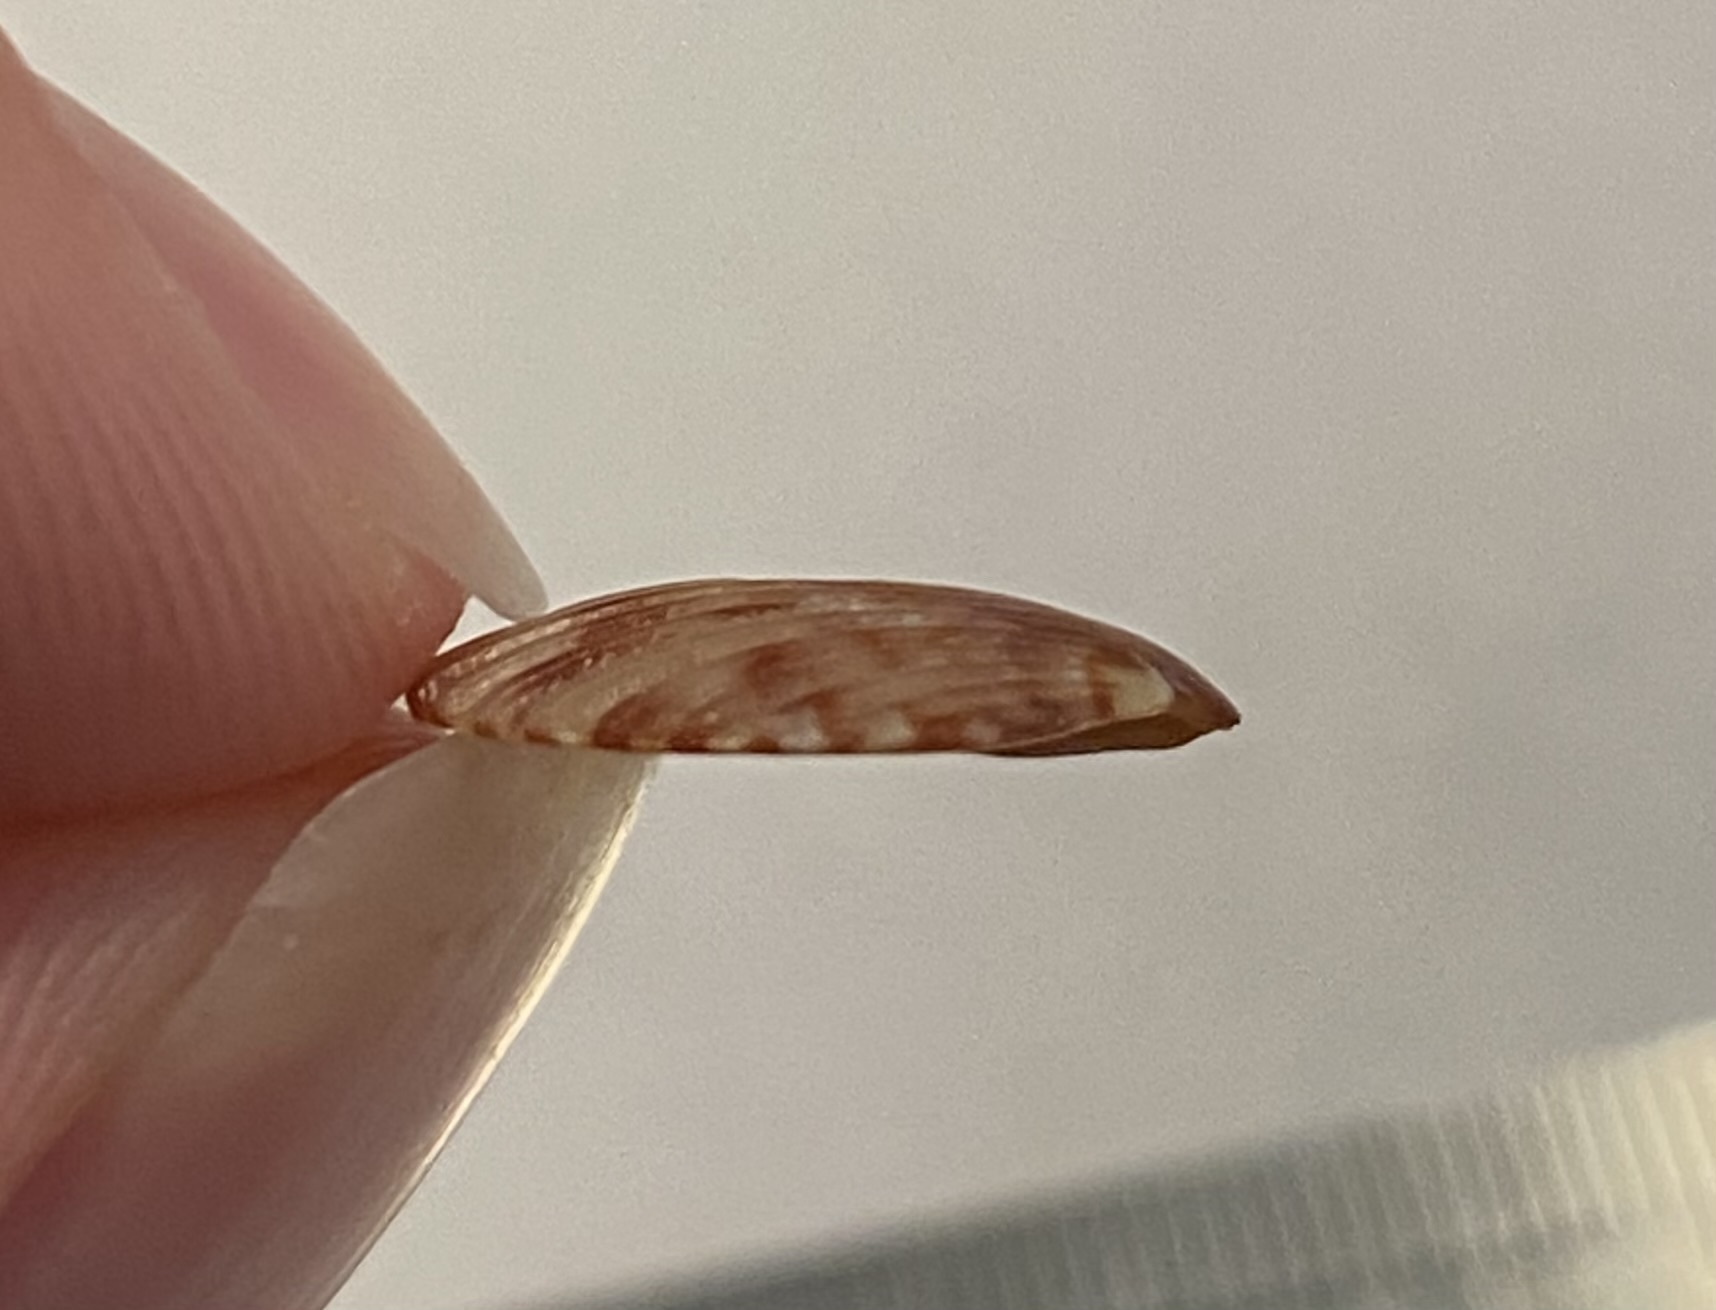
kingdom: Animalia
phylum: Mollusca
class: Bivalvia
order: Pectinida
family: Pectinidae
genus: Argopecten
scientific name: Argopecten gibbus
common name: Atlantic calico scallop
